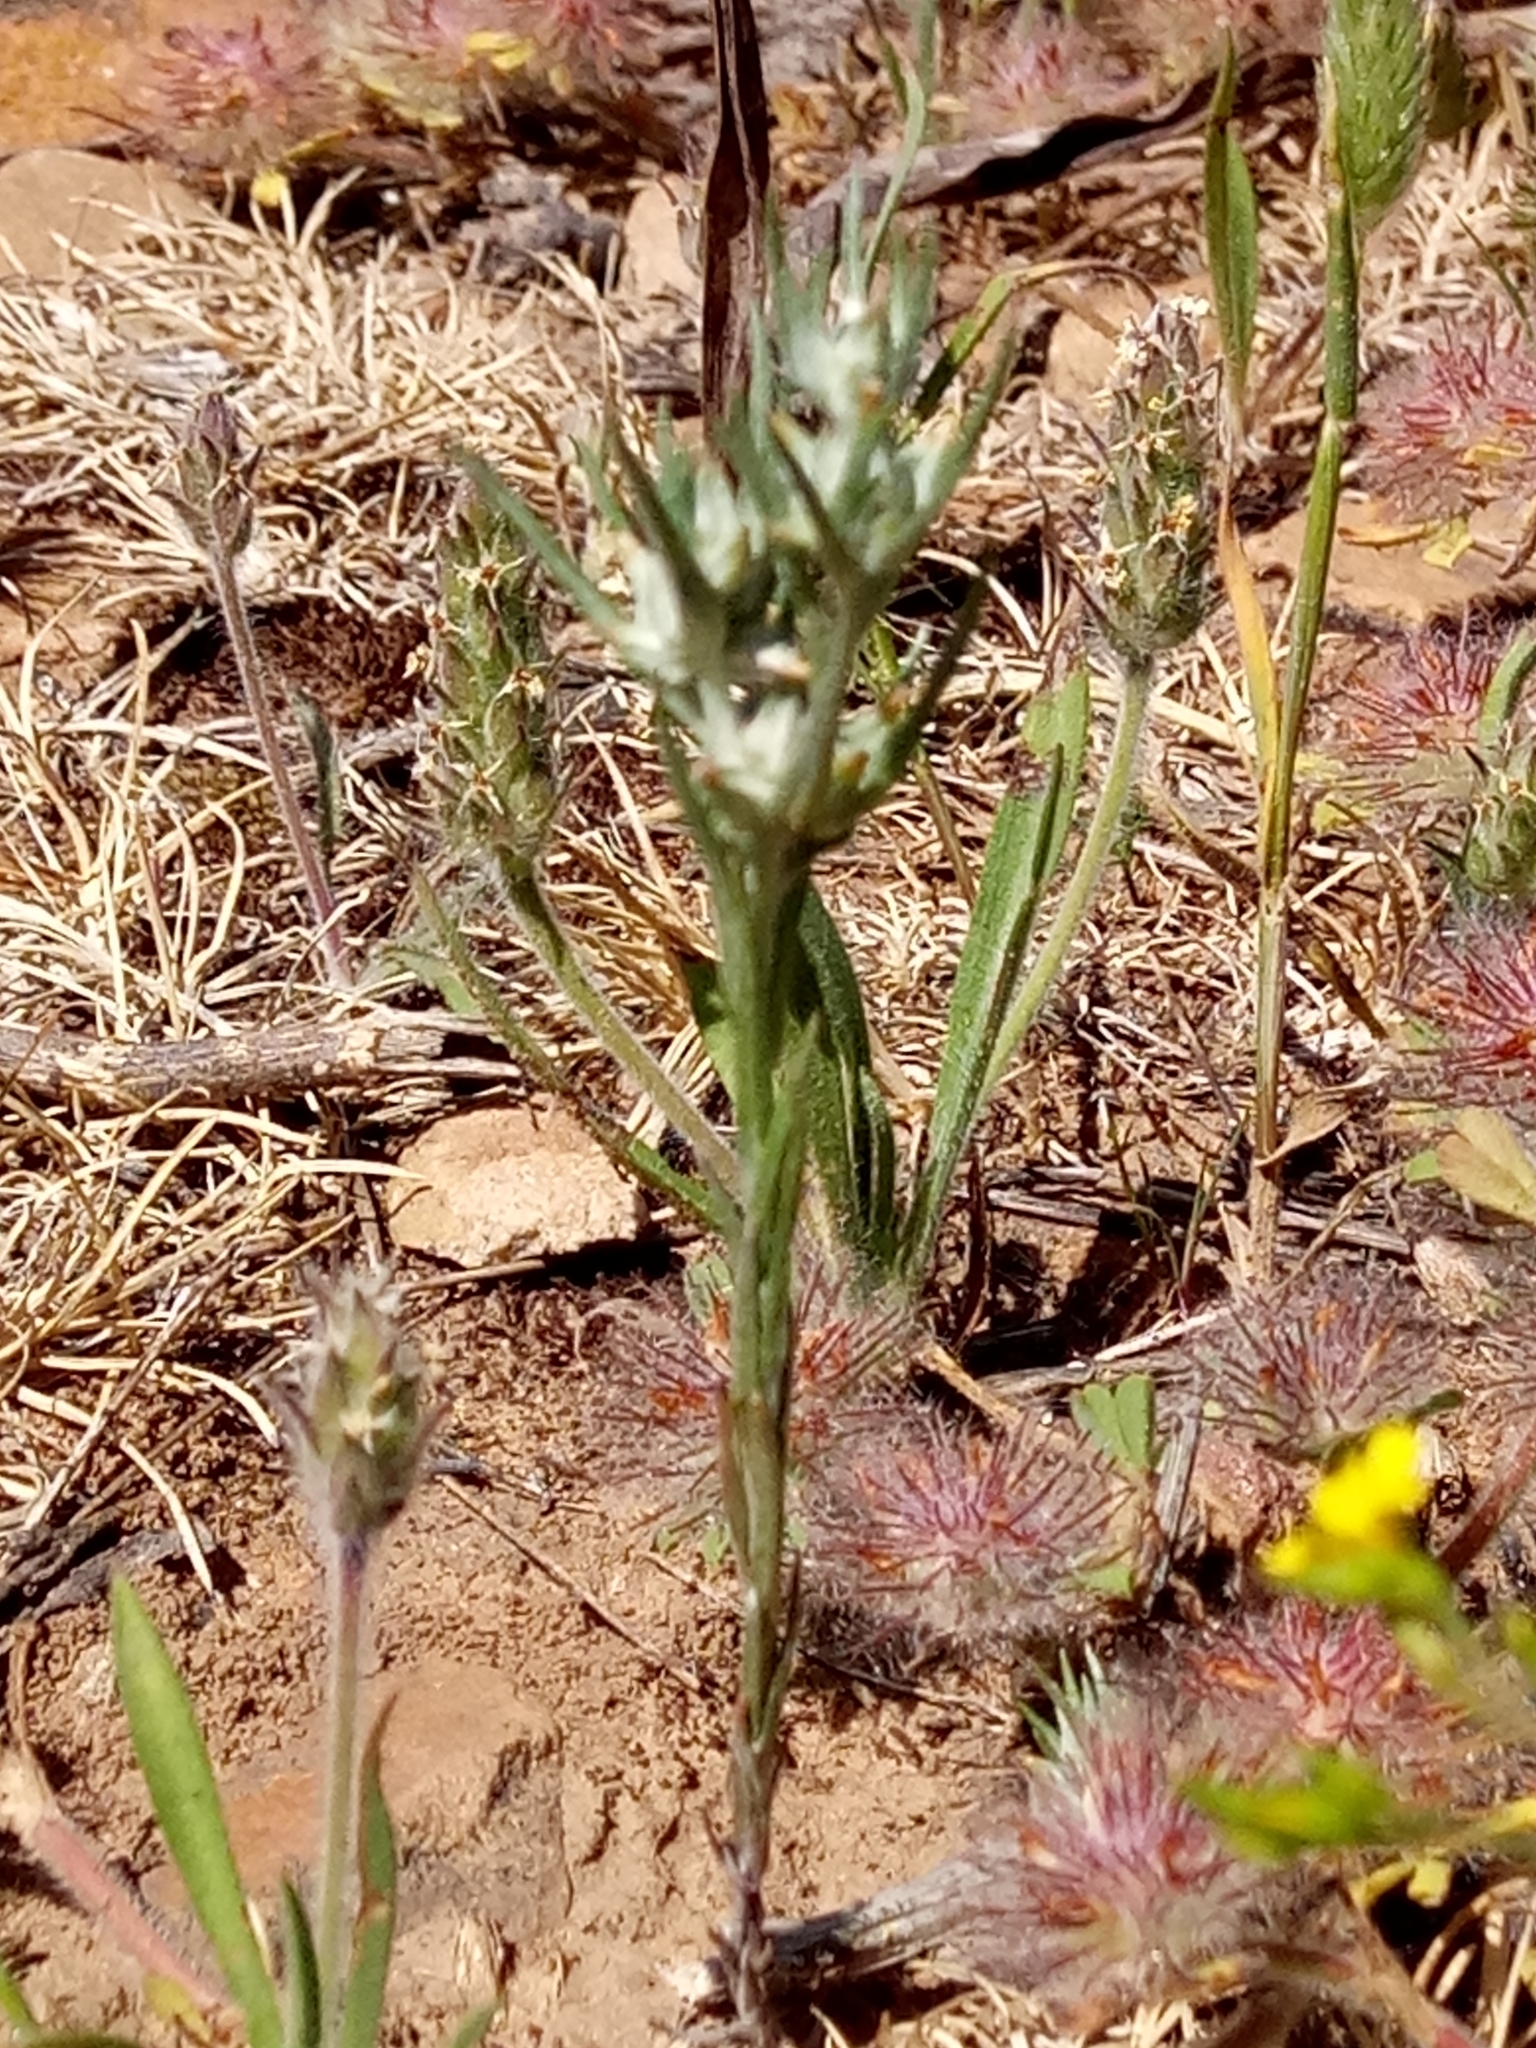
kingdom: Plantae
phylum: Tracheophyta
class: Magnoliopsida
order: Asterales
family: Asteraceae
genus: Logfia
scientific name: Logfia gallica
